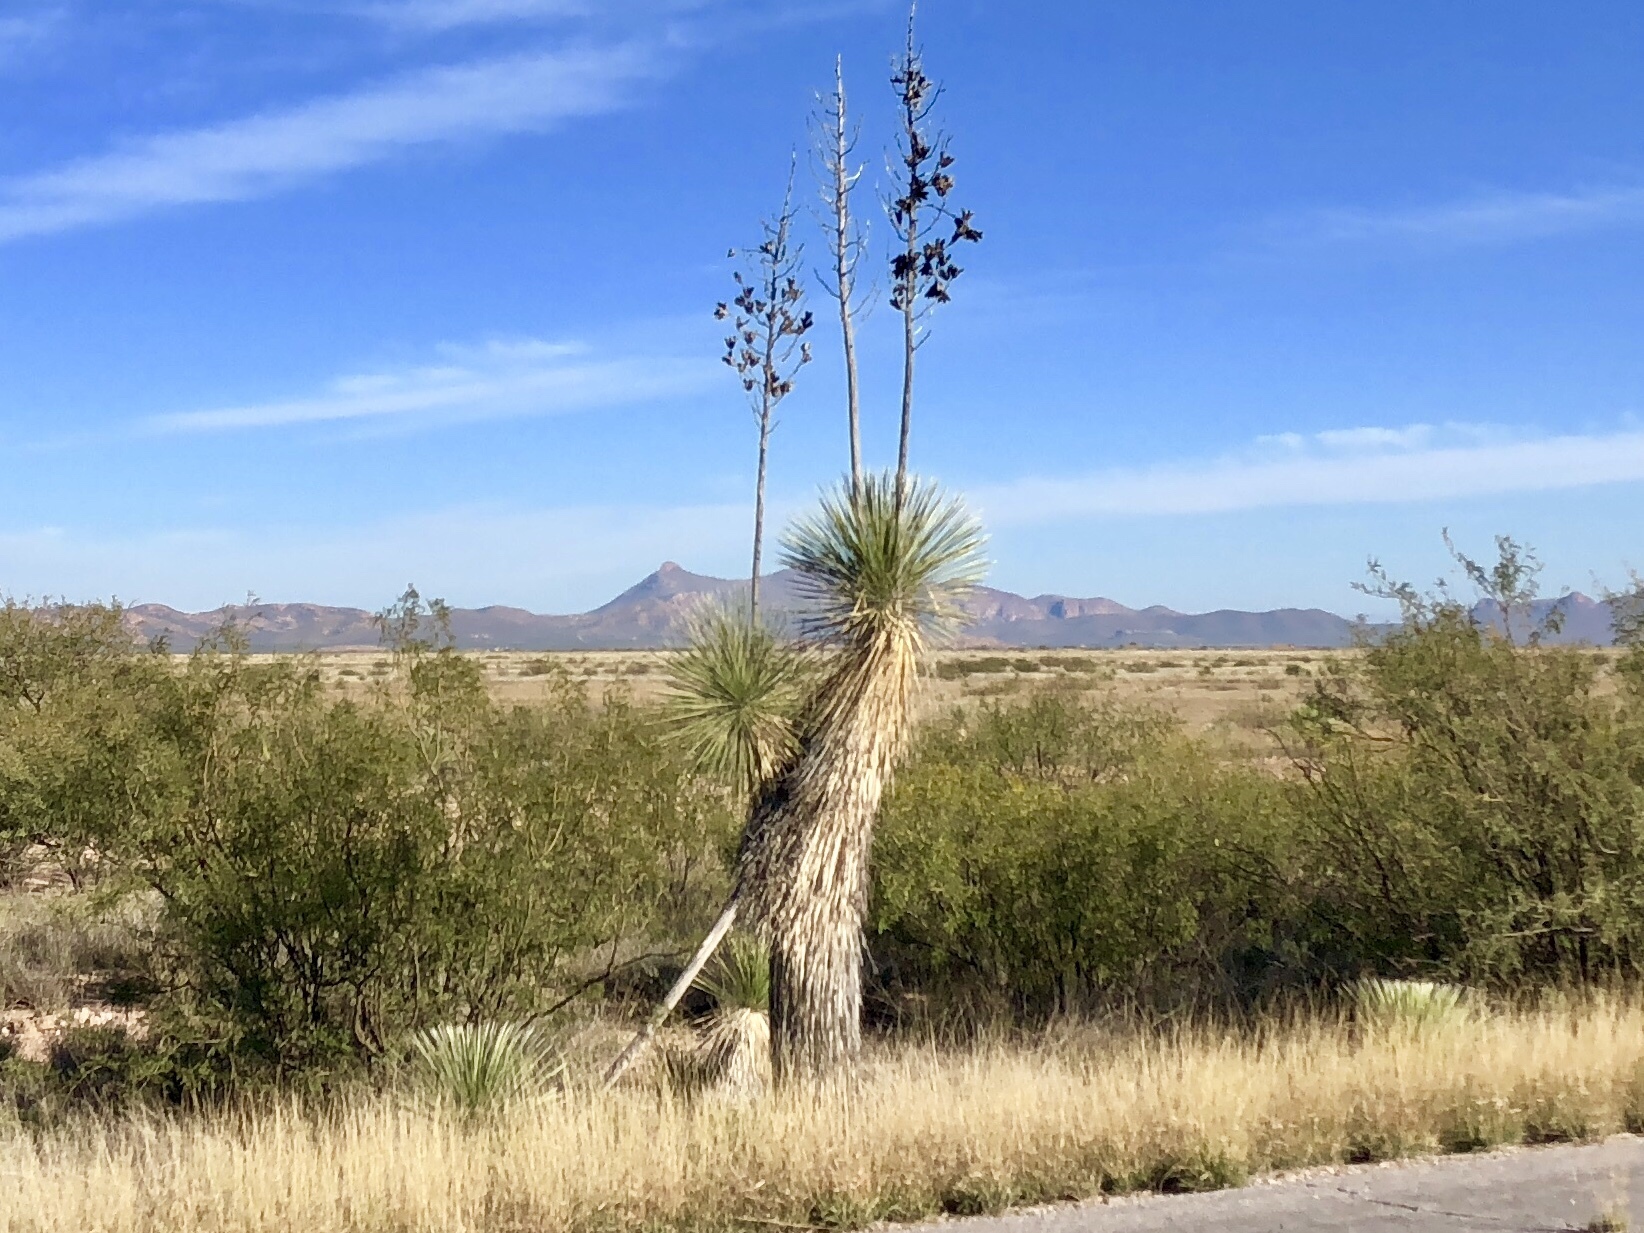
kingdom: Plantae
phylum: Tracheophyta
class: Liliopsida
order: Asparagales
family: Asparagaceae
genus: Yucca
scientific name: Yucca elata
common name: Palmella
